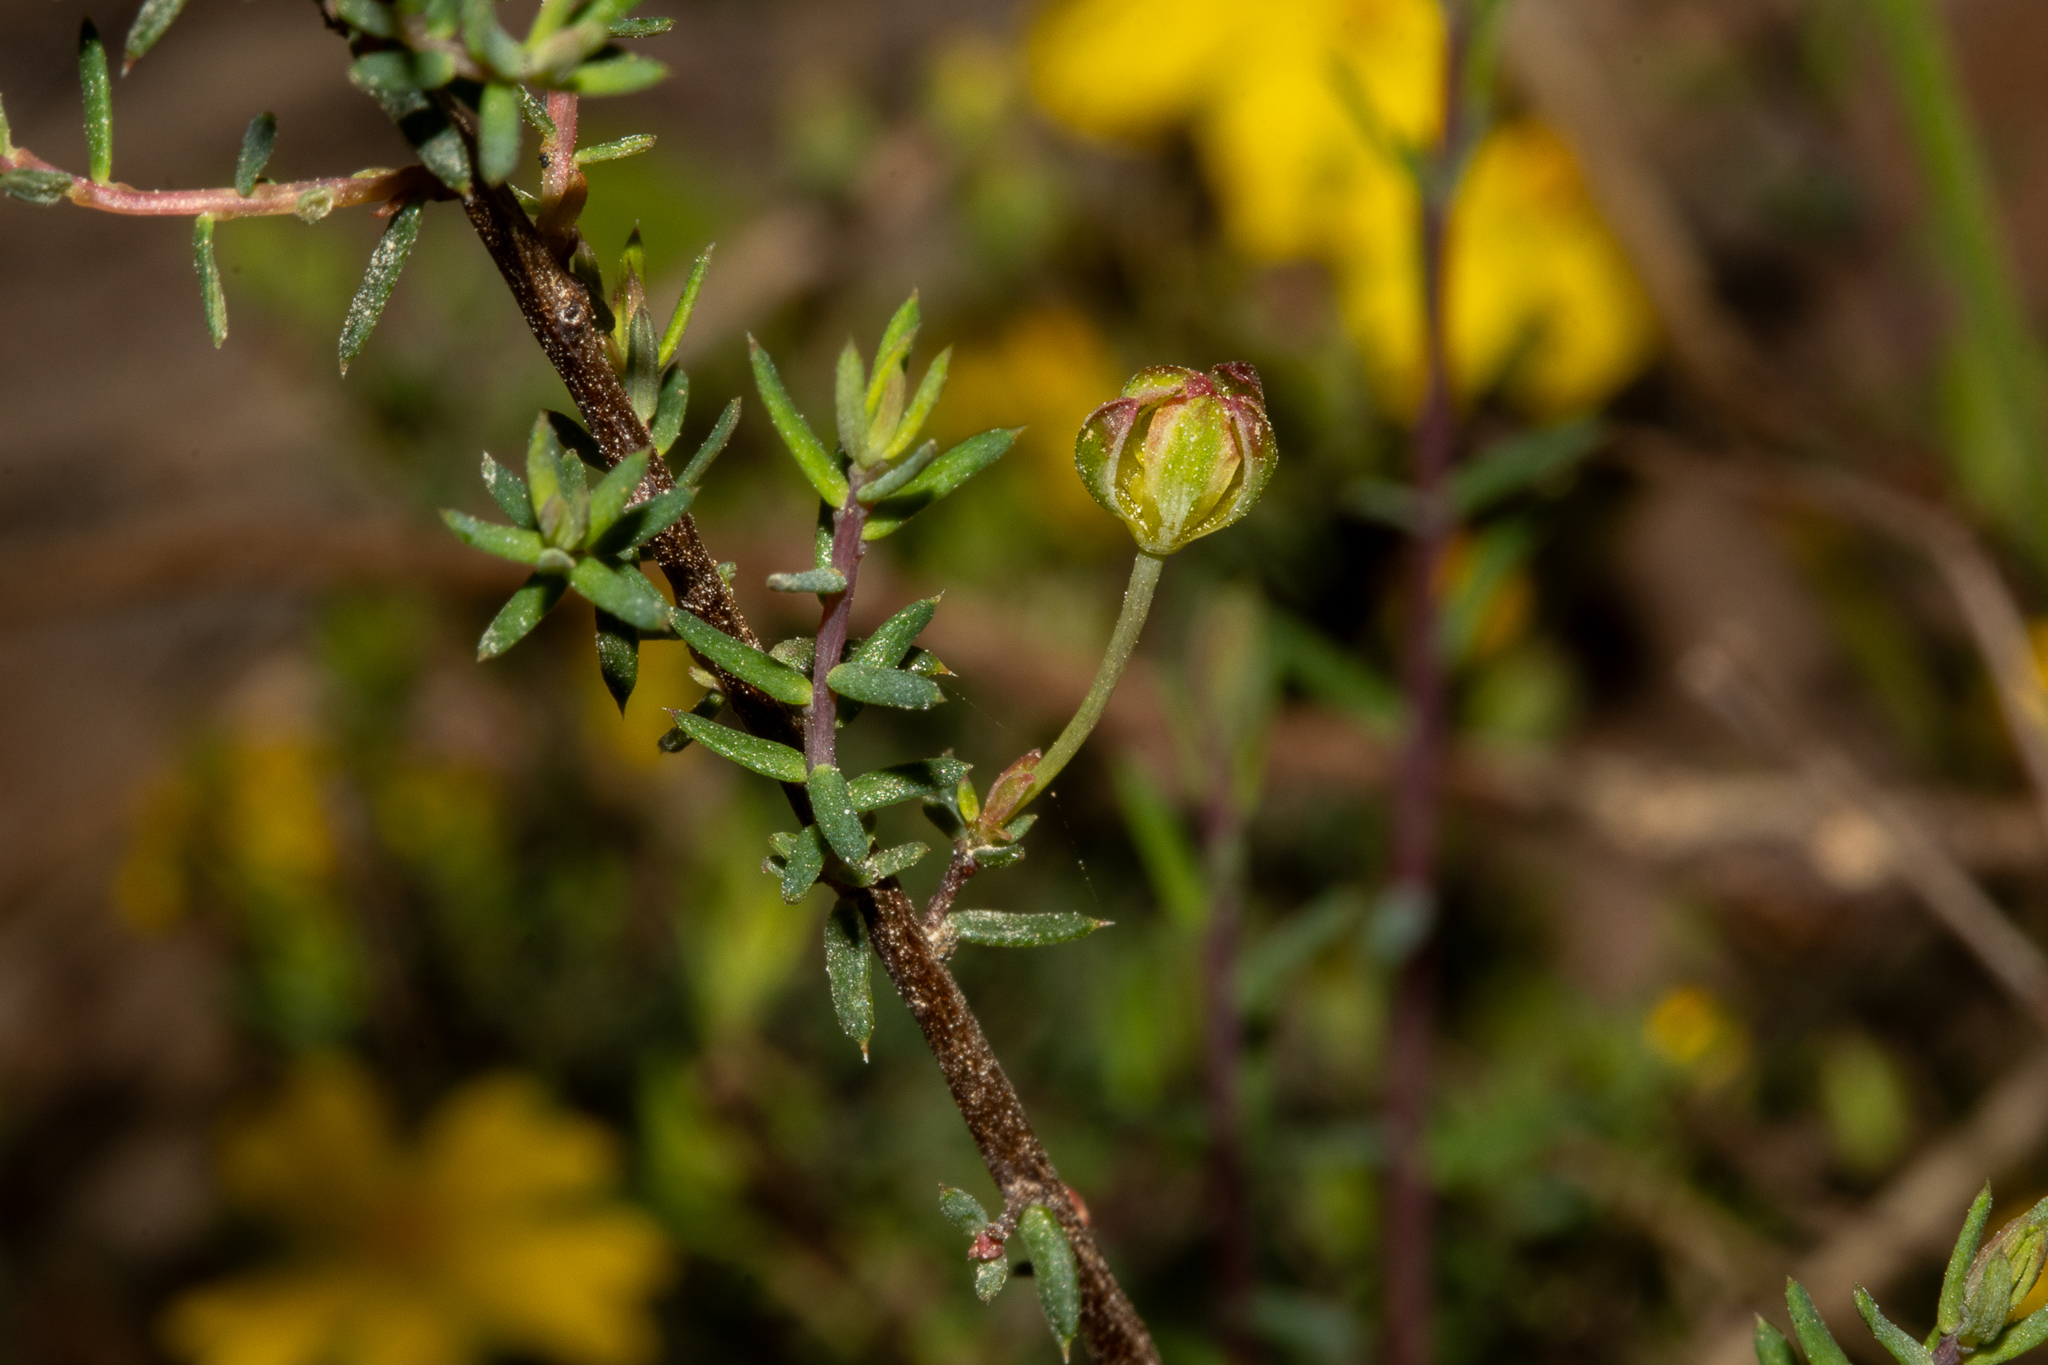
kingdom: Plantae
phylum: Tracheophyta
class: Magnoliopsida
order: Dilleniales
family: Dilleniaceae
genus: Hibbertia
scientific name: Hibbertia obtusibracteata
